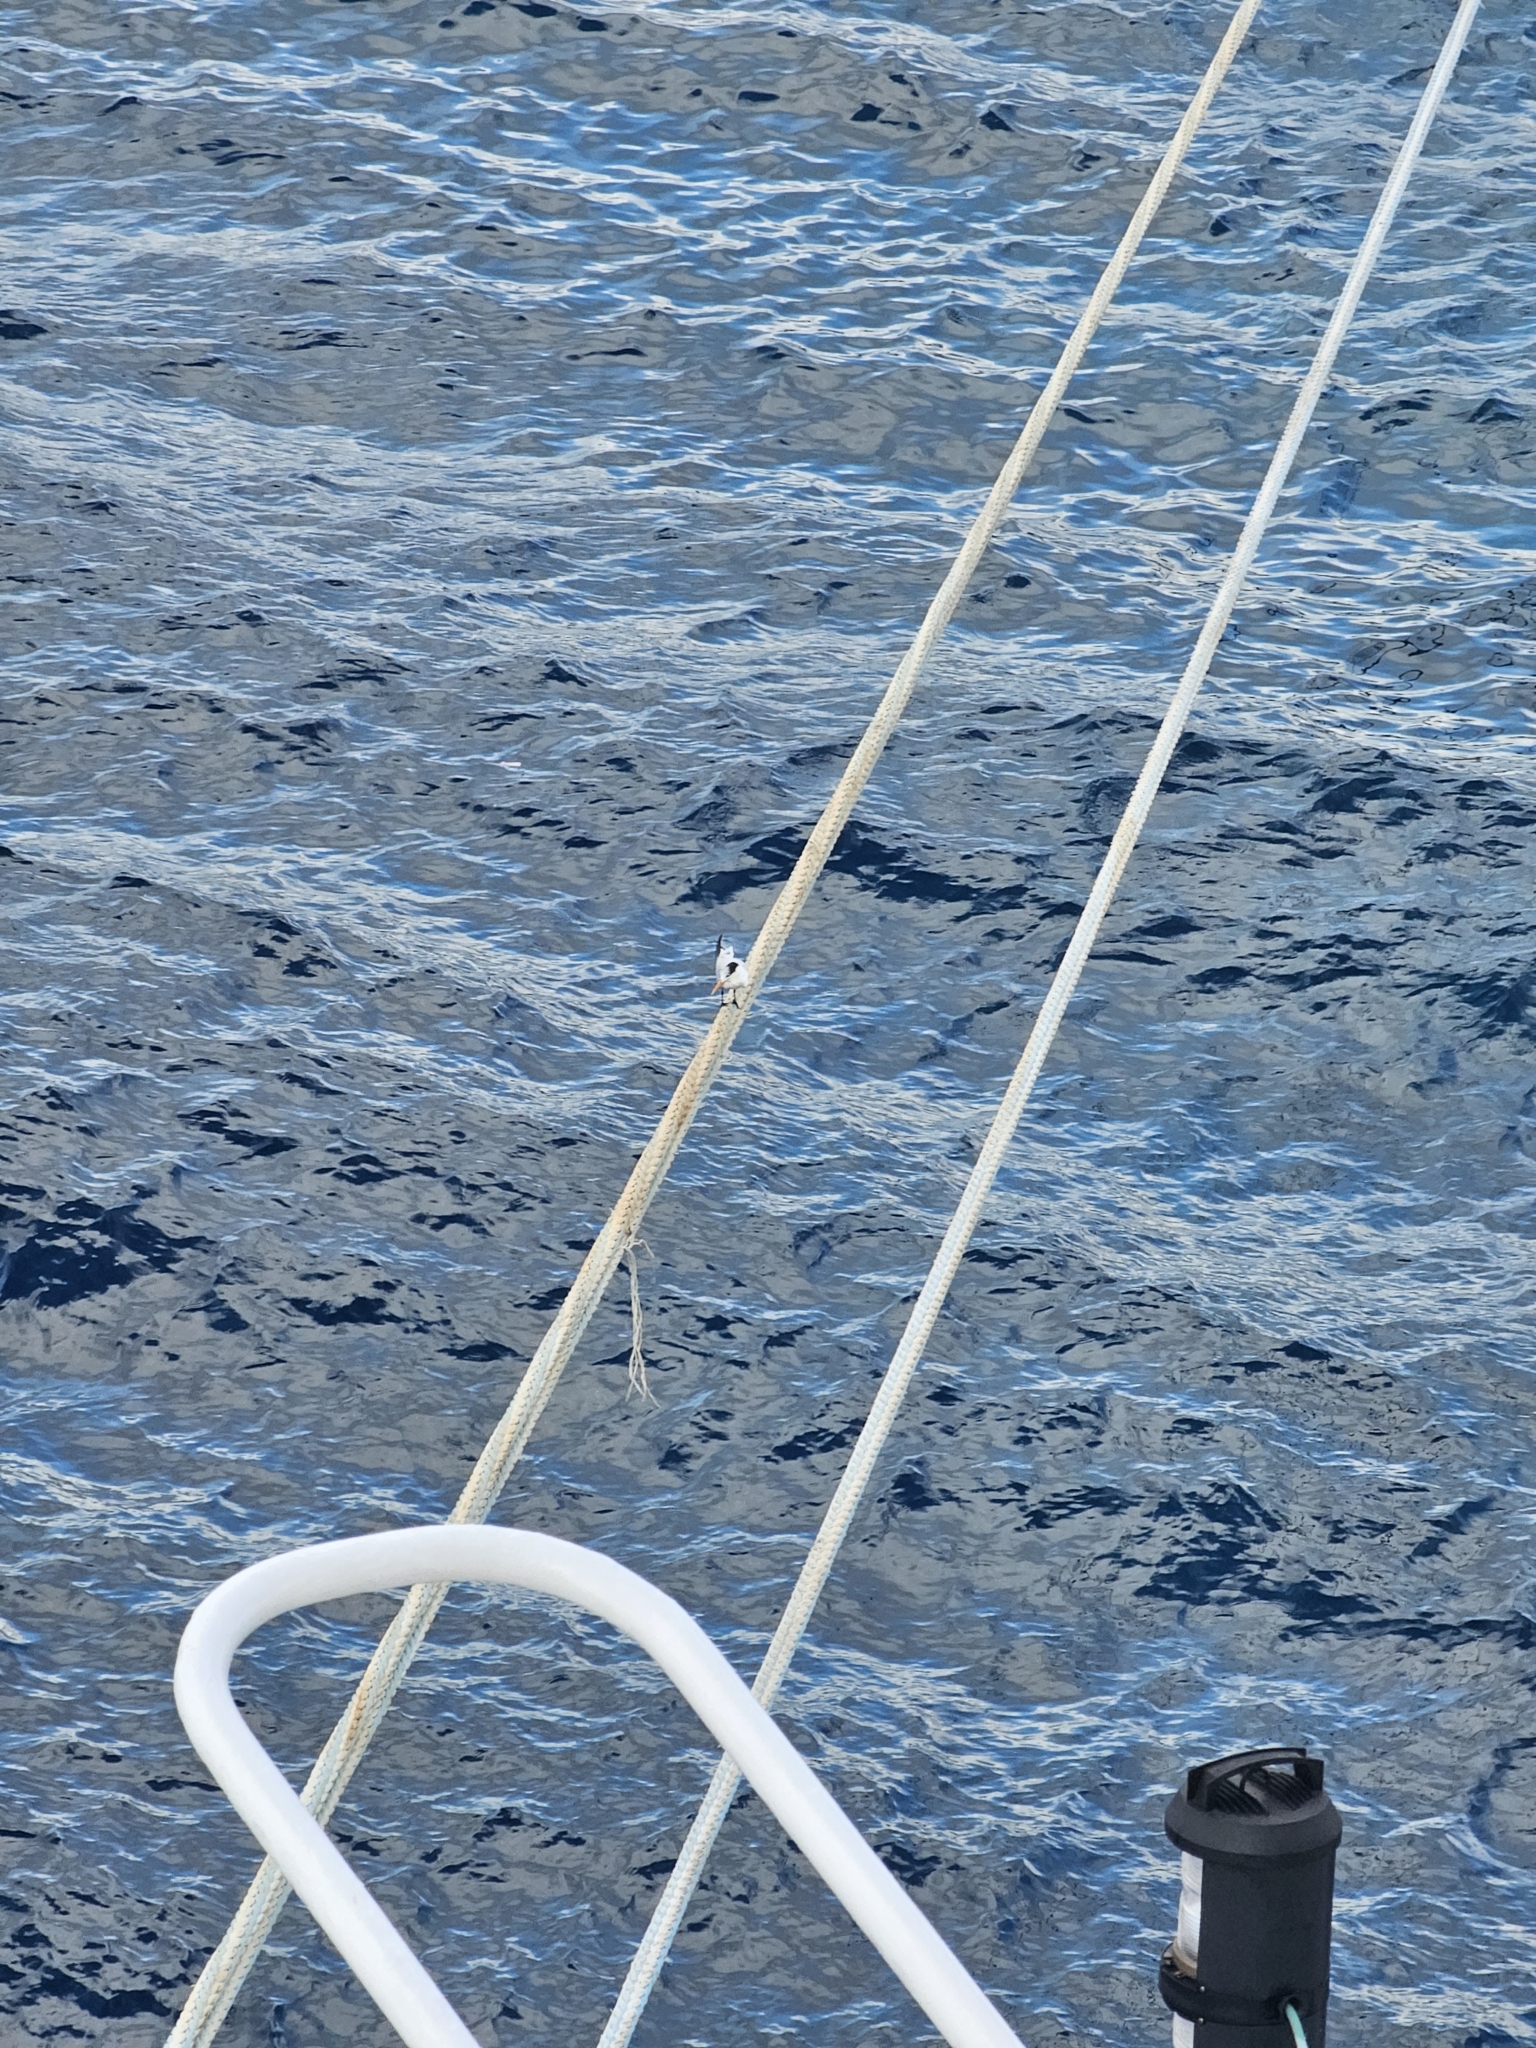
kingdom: Animalia
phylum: Chordata
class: Aves
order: Charadriiformes
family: Laridae
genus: Thalasseus
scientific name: Thalasseus maximus
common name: Royal tern
